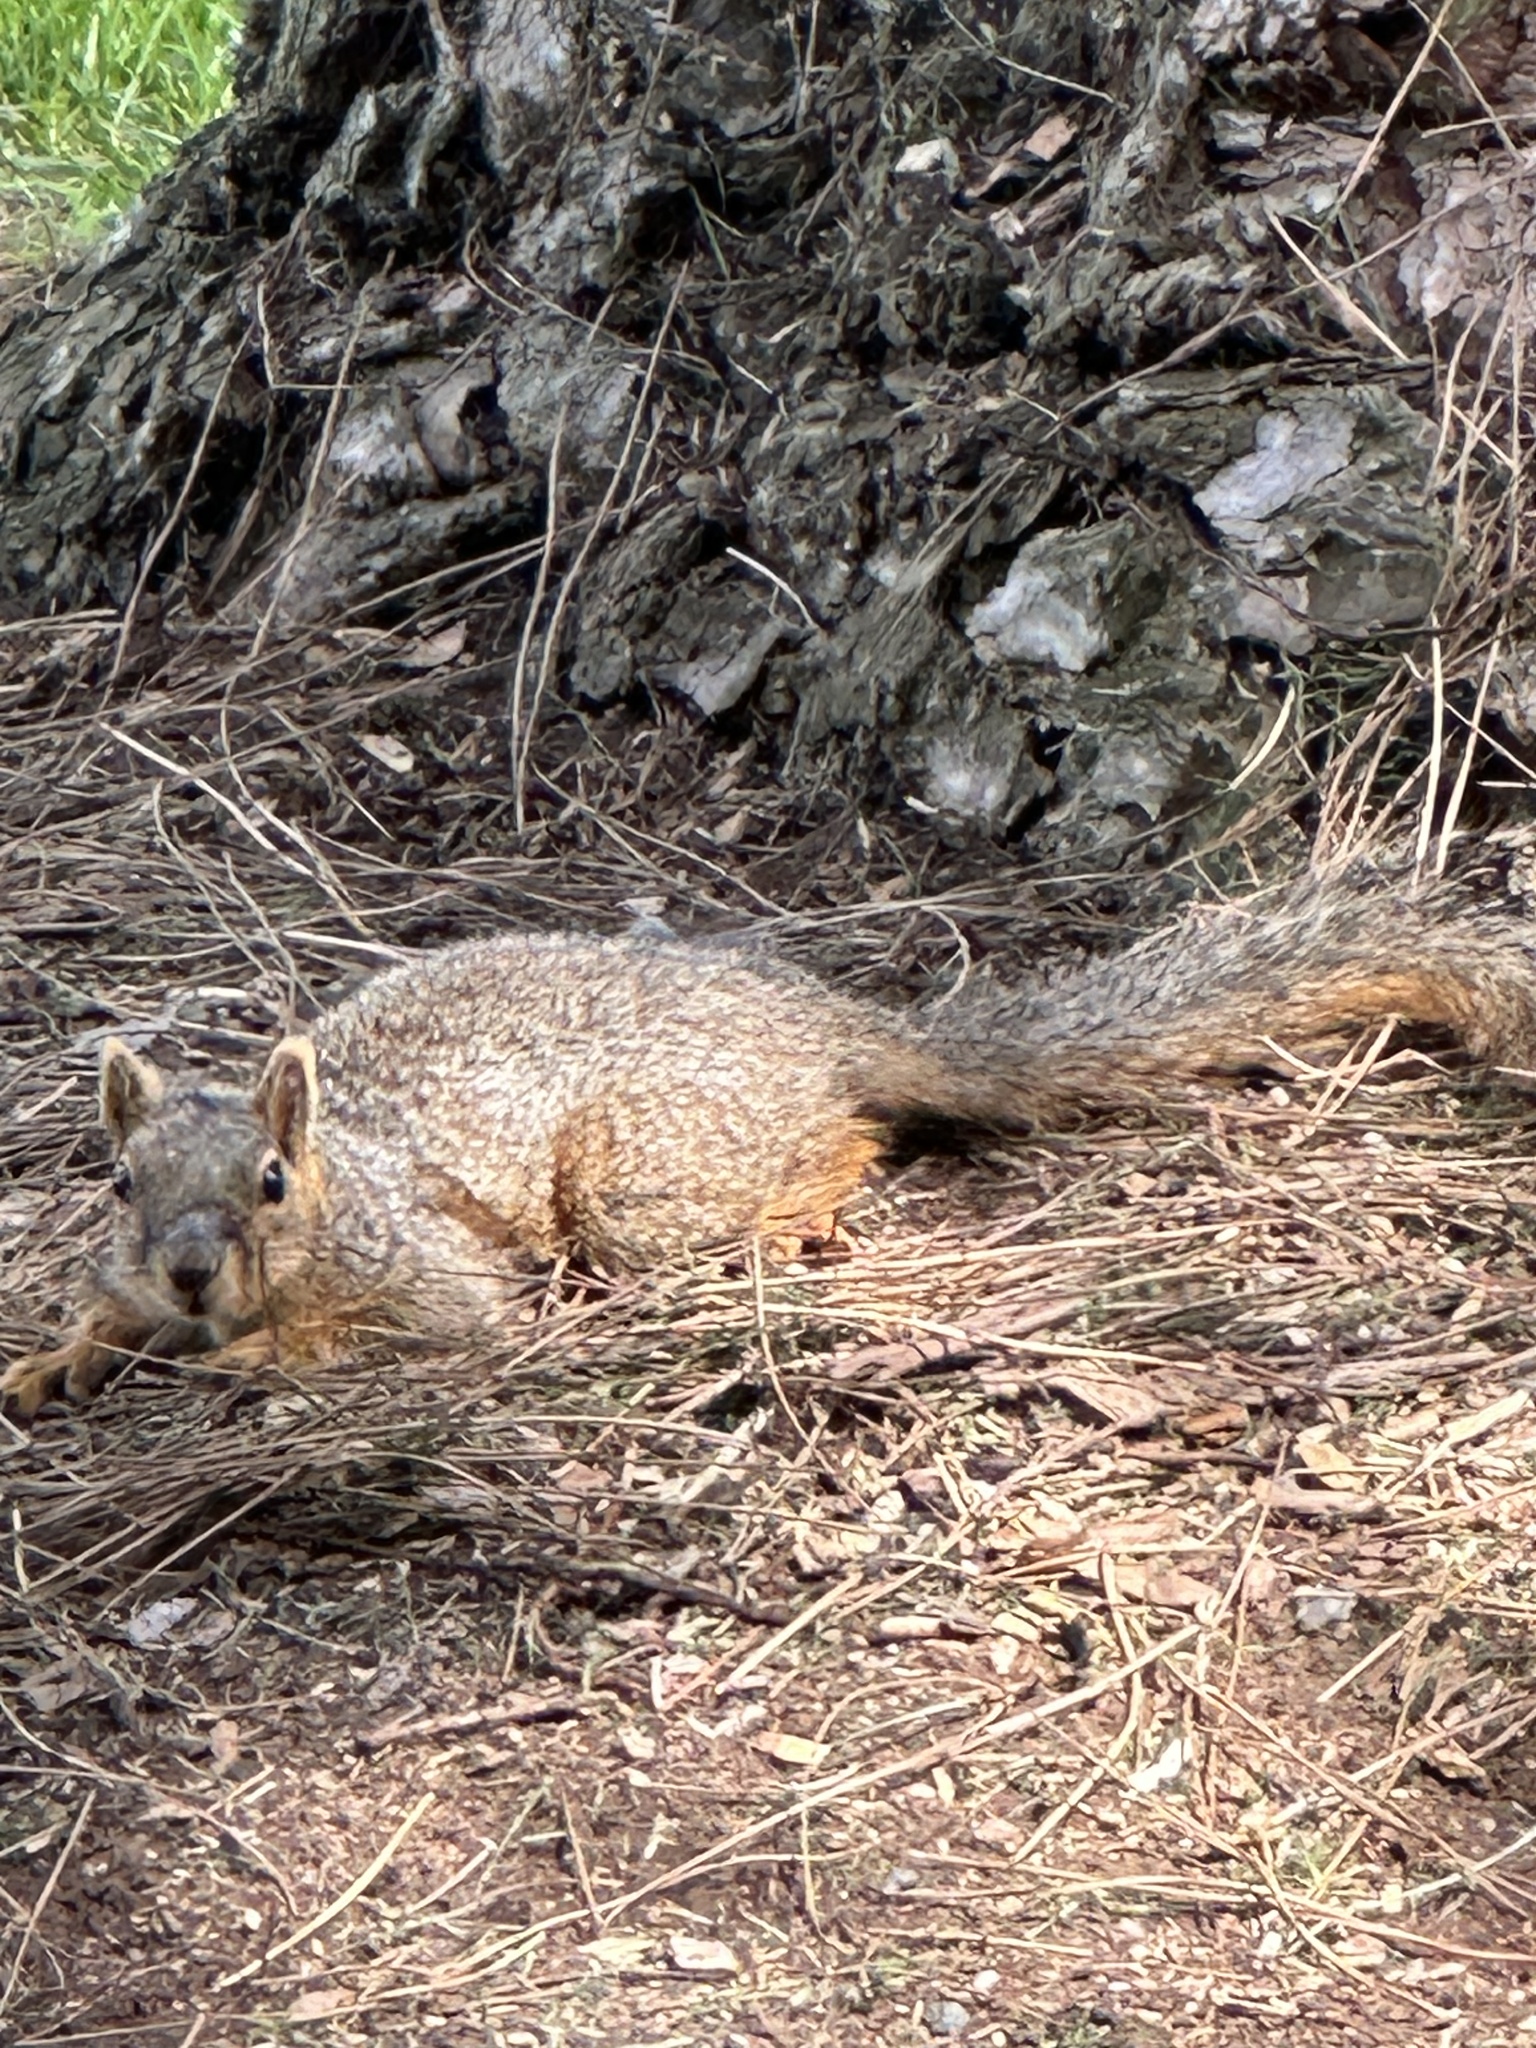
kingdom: Animalia
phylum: Chordata
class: Mammalia
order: Rodentia
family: Sciuridae
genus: Sciurus
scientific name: Sciurus niger
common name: Fox squirrel
